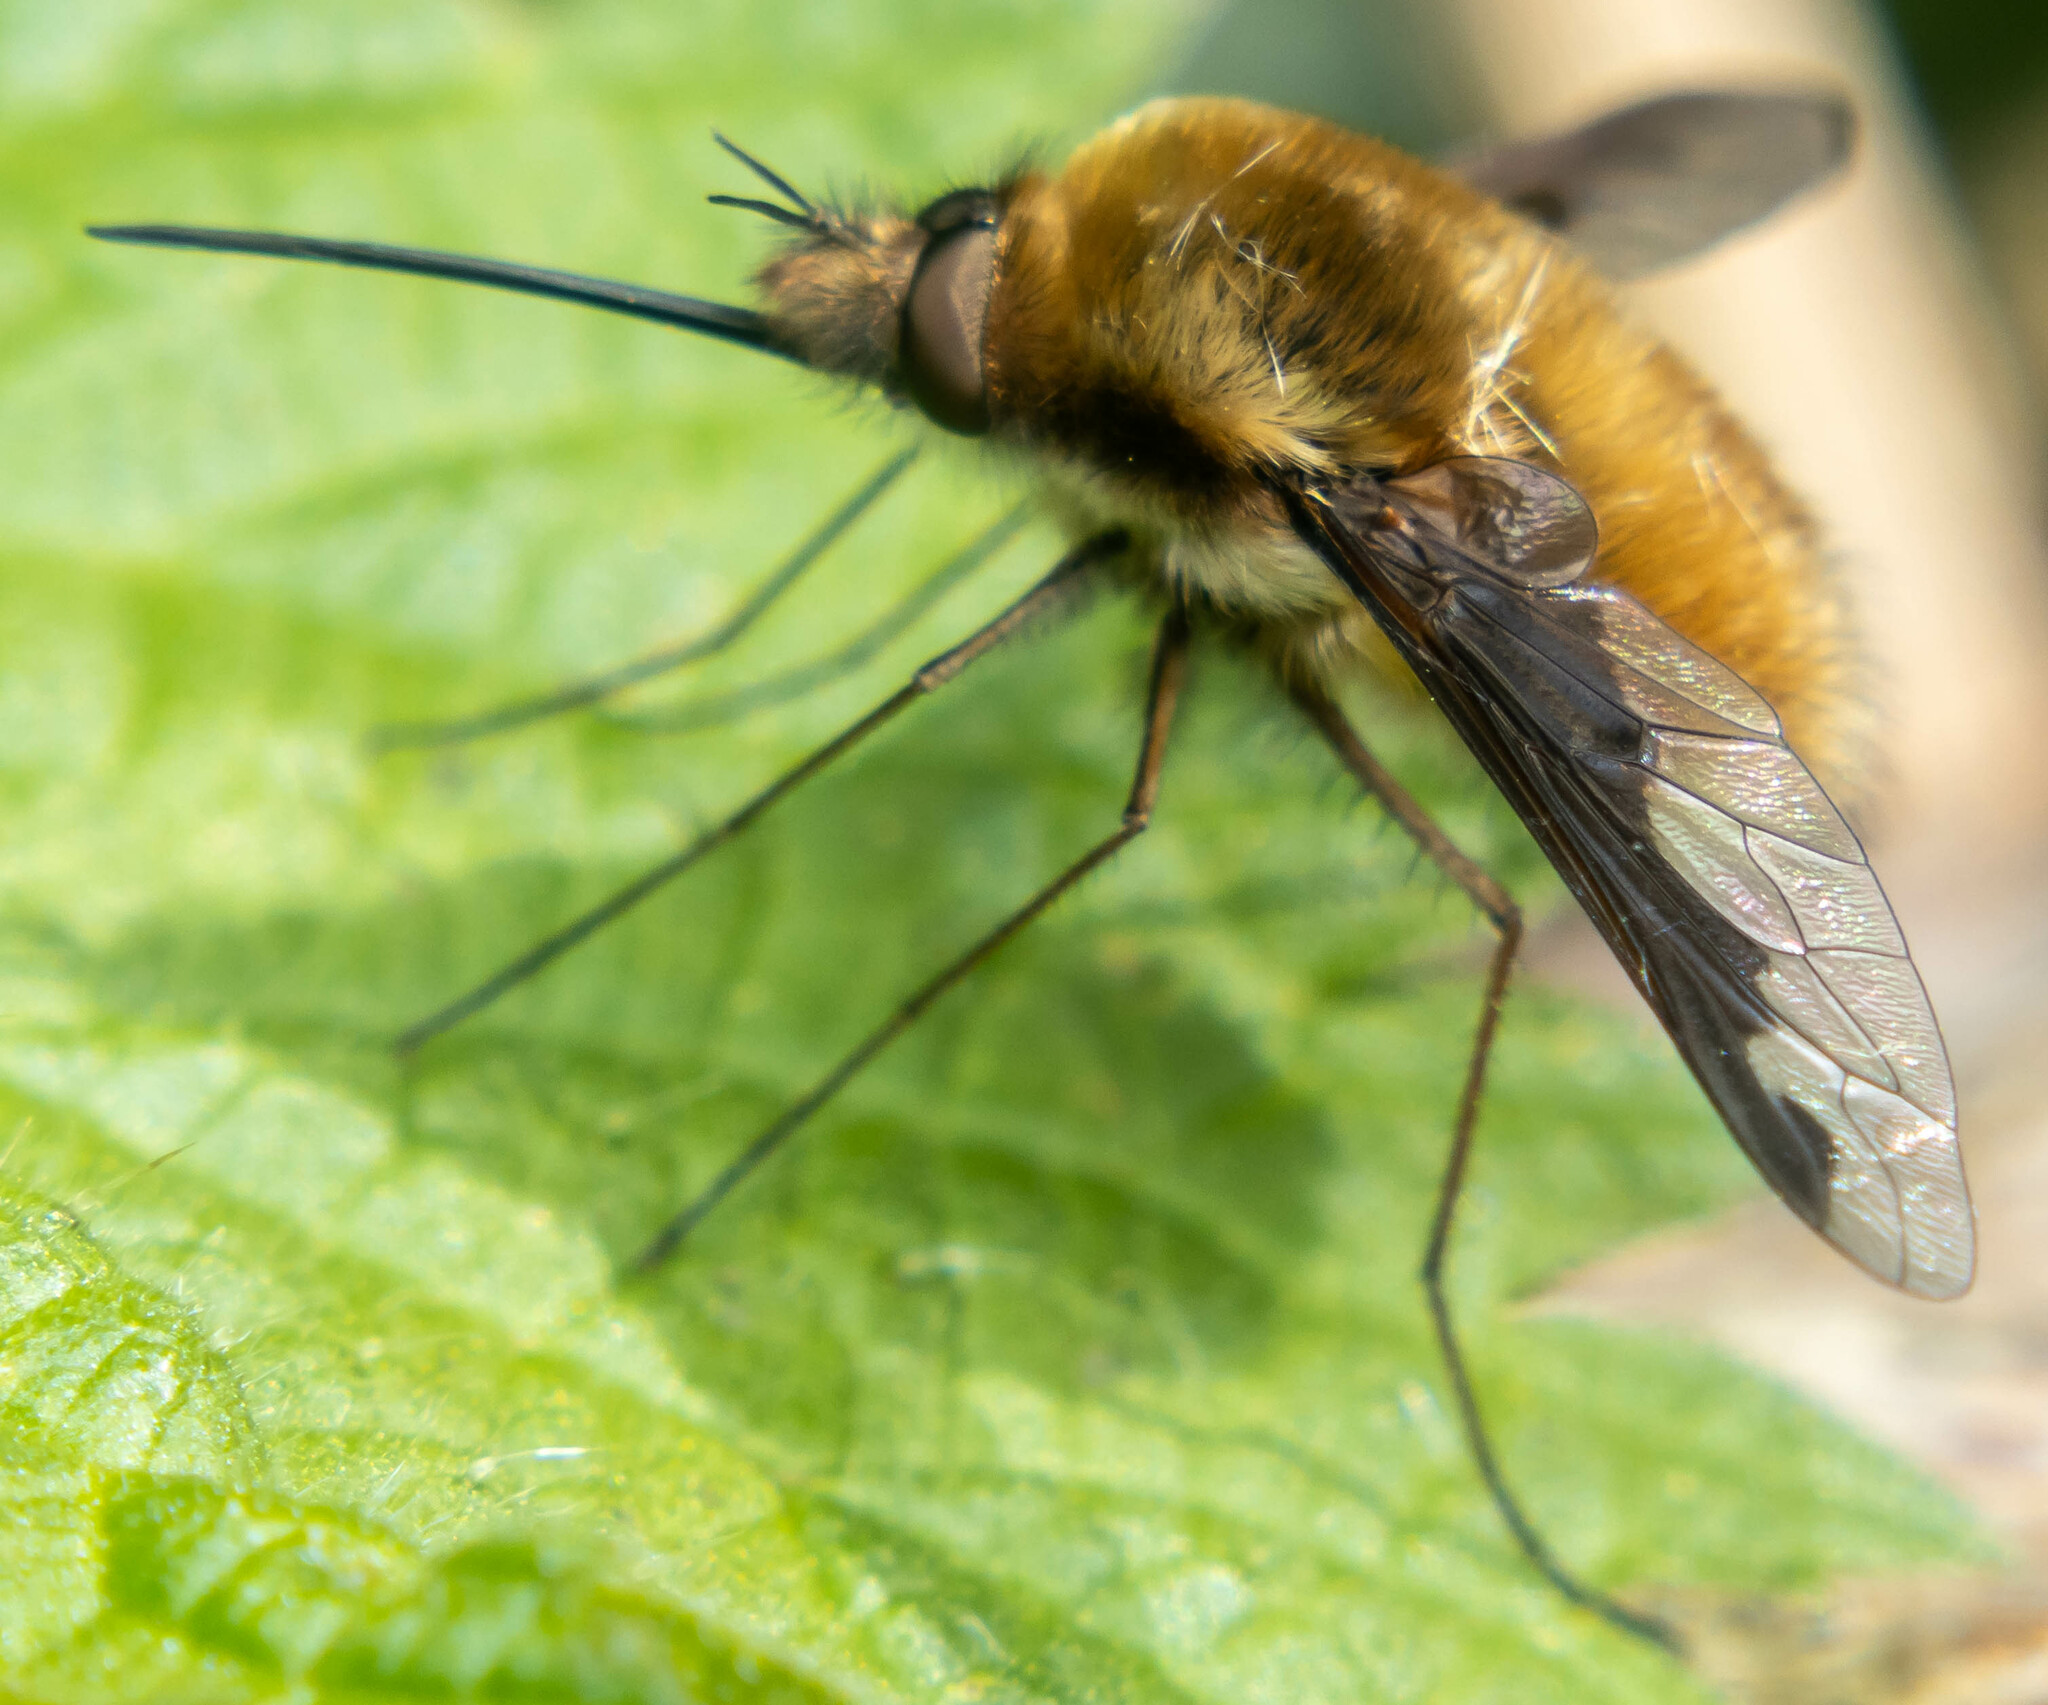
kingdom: Animalia
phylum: Arthropoda
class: Insecta
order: Diptera
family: Bombyliidae
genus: Bombylius
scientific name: Bombylius major
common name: Bee fly
